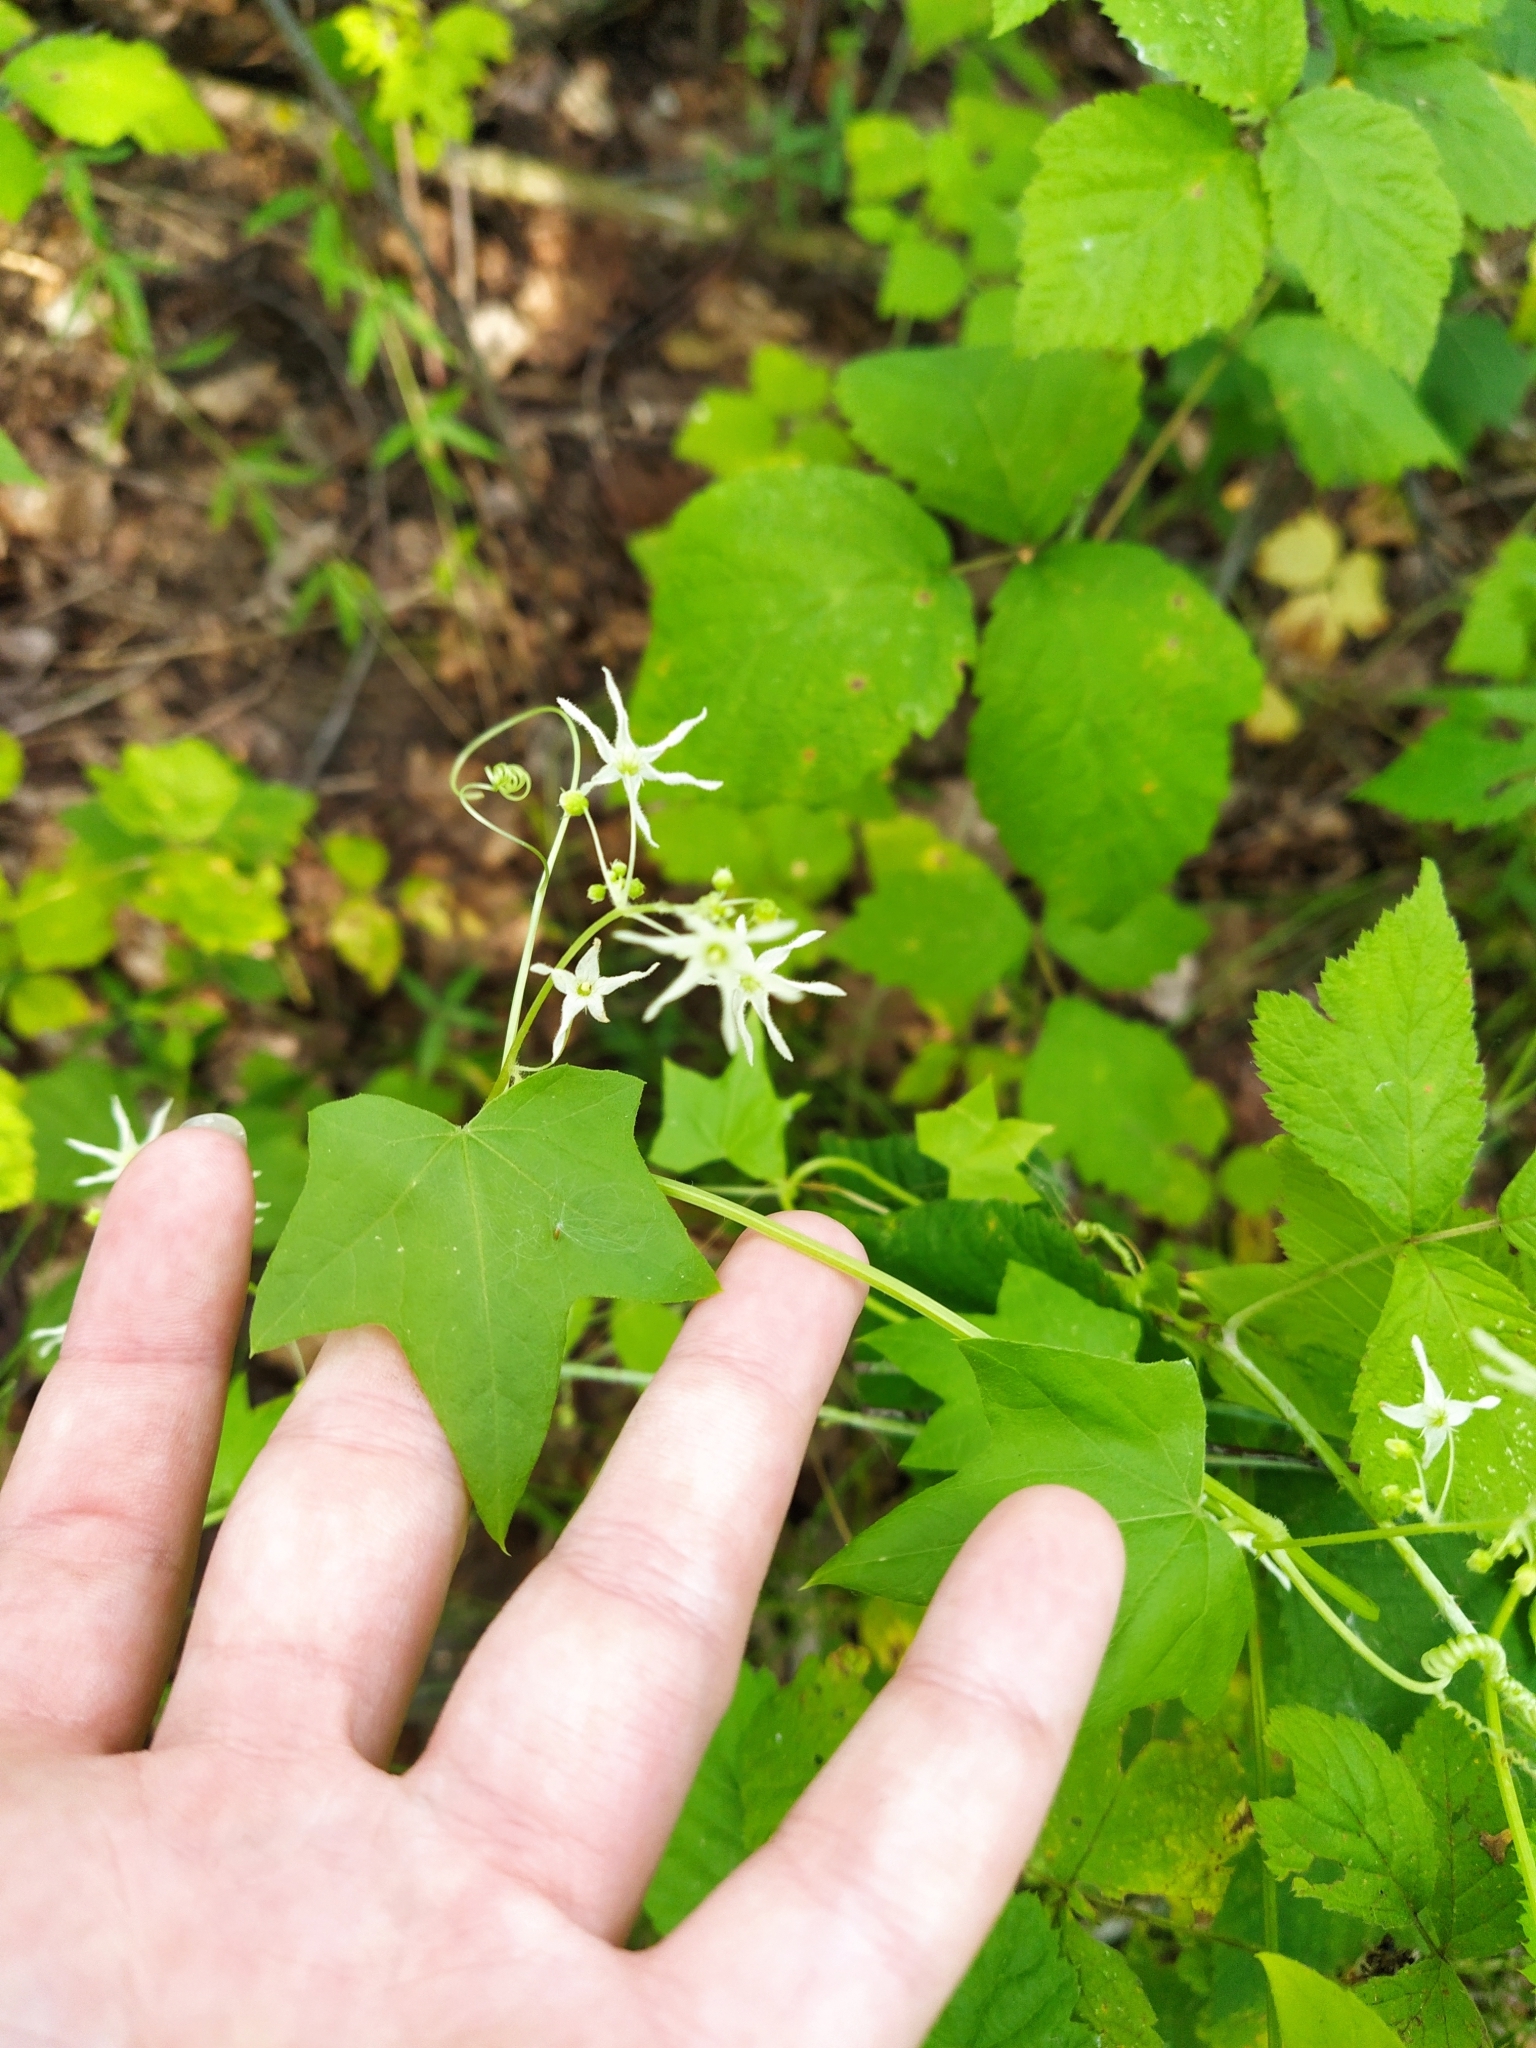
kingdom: Plantae
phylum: Tracheophyta
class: Magnoliopsida
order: Cucurbitales
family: Cucurbitaceae
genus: Echinocystis
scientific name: Echinocystis lobata
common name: Wild cucumber
